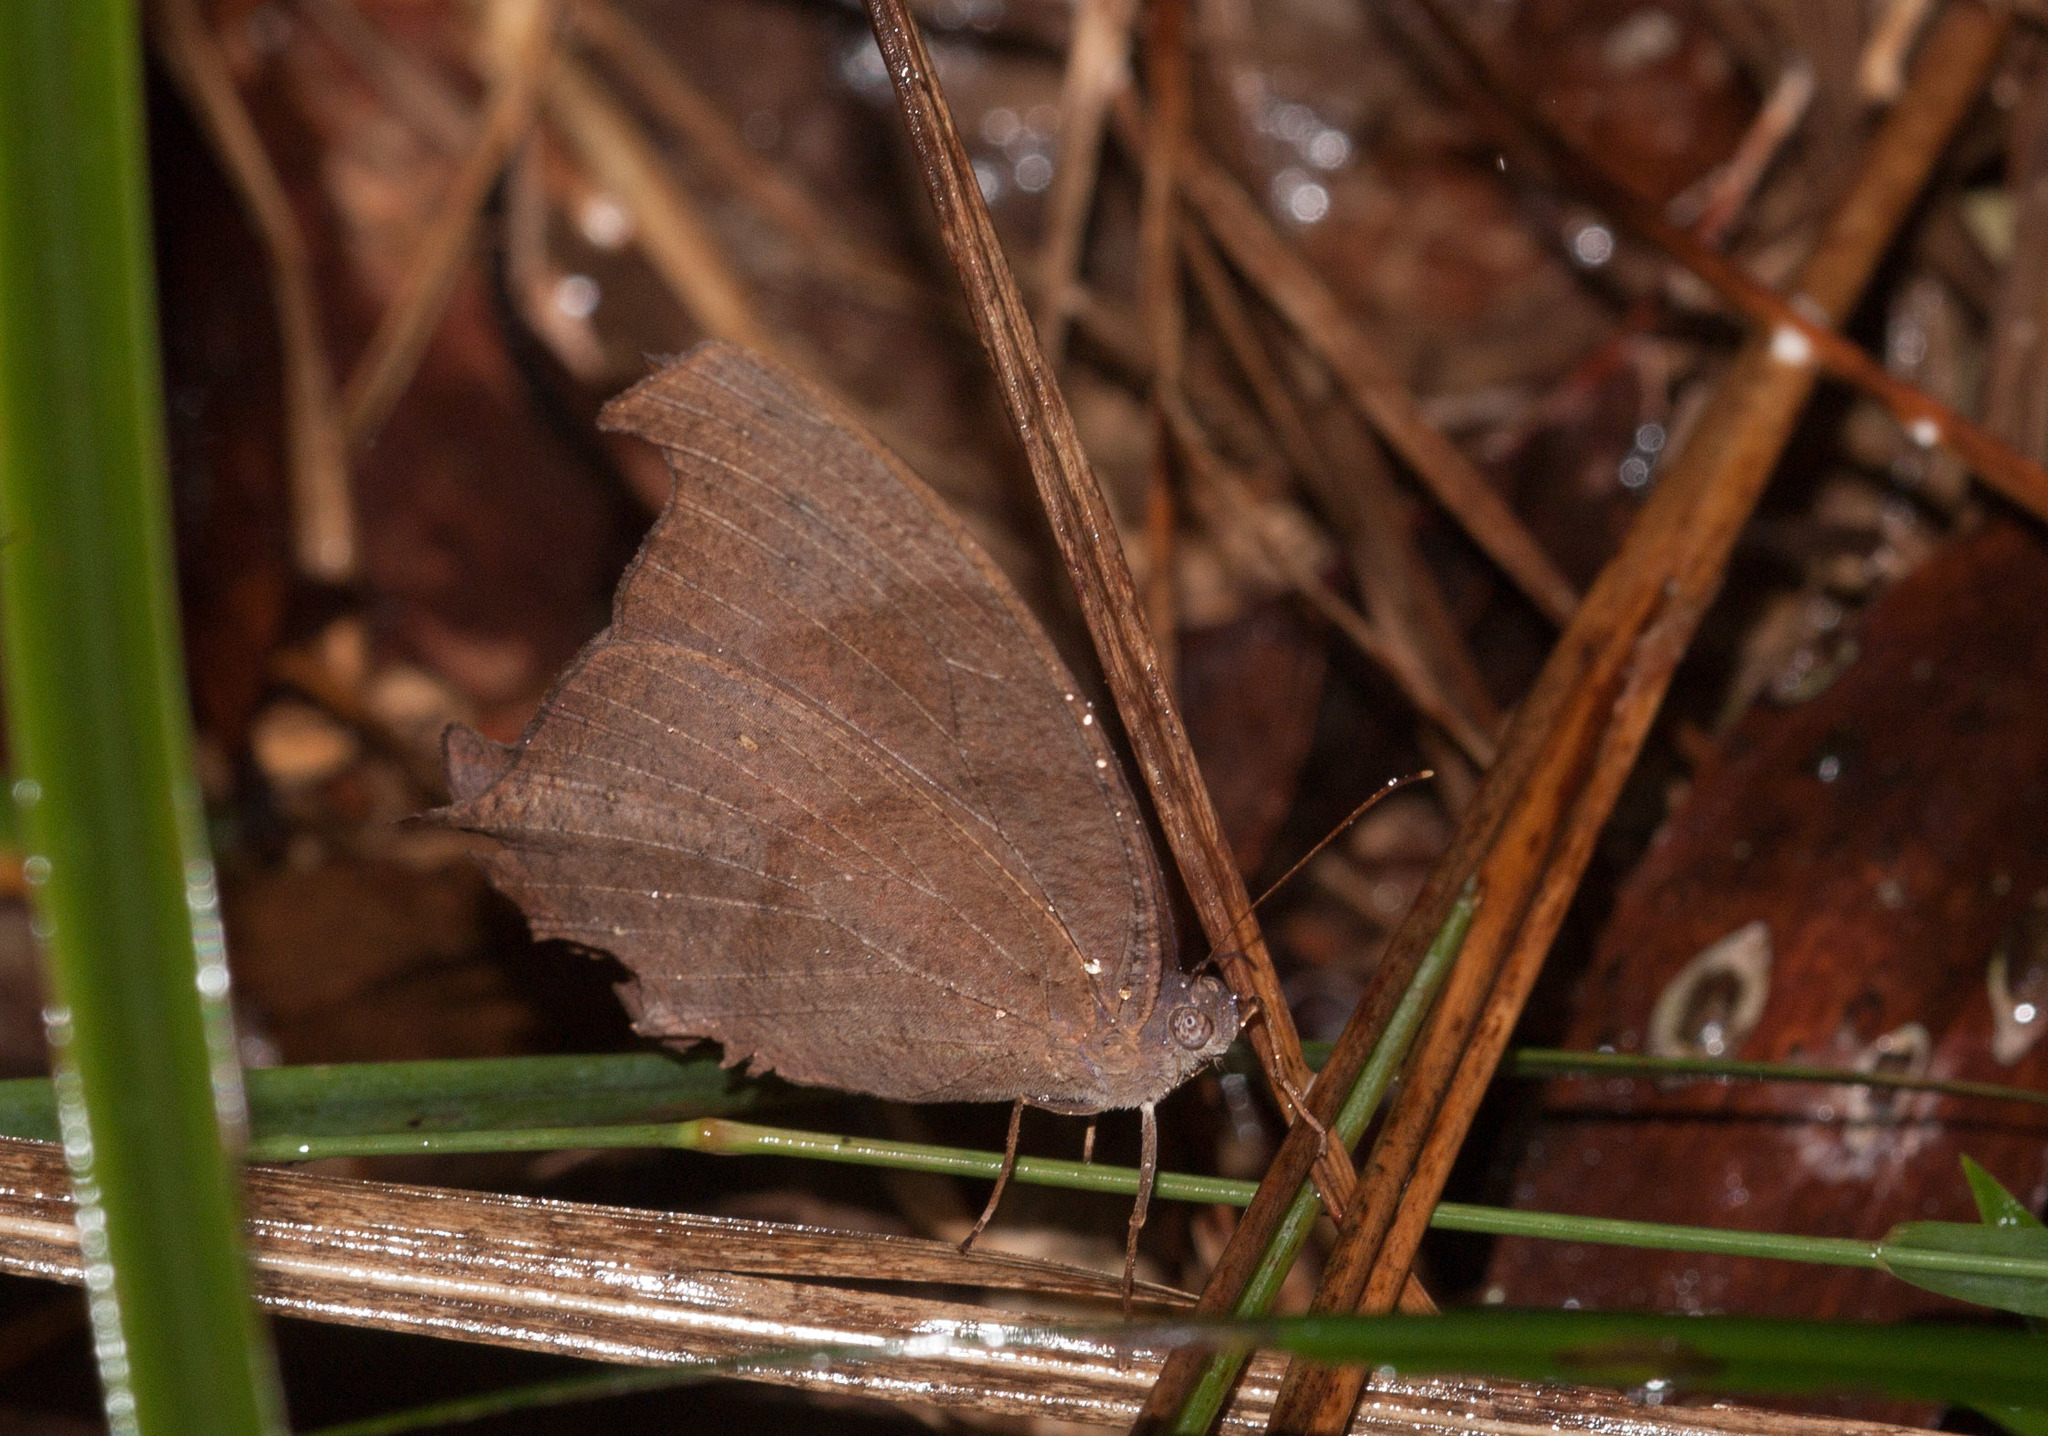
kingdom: Animalia
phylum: Arthropoda
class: Insecta
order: Lepidoptera
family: Nymphalidae
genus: Melanitis
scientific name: Melanitis leda
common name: Twilight brown
